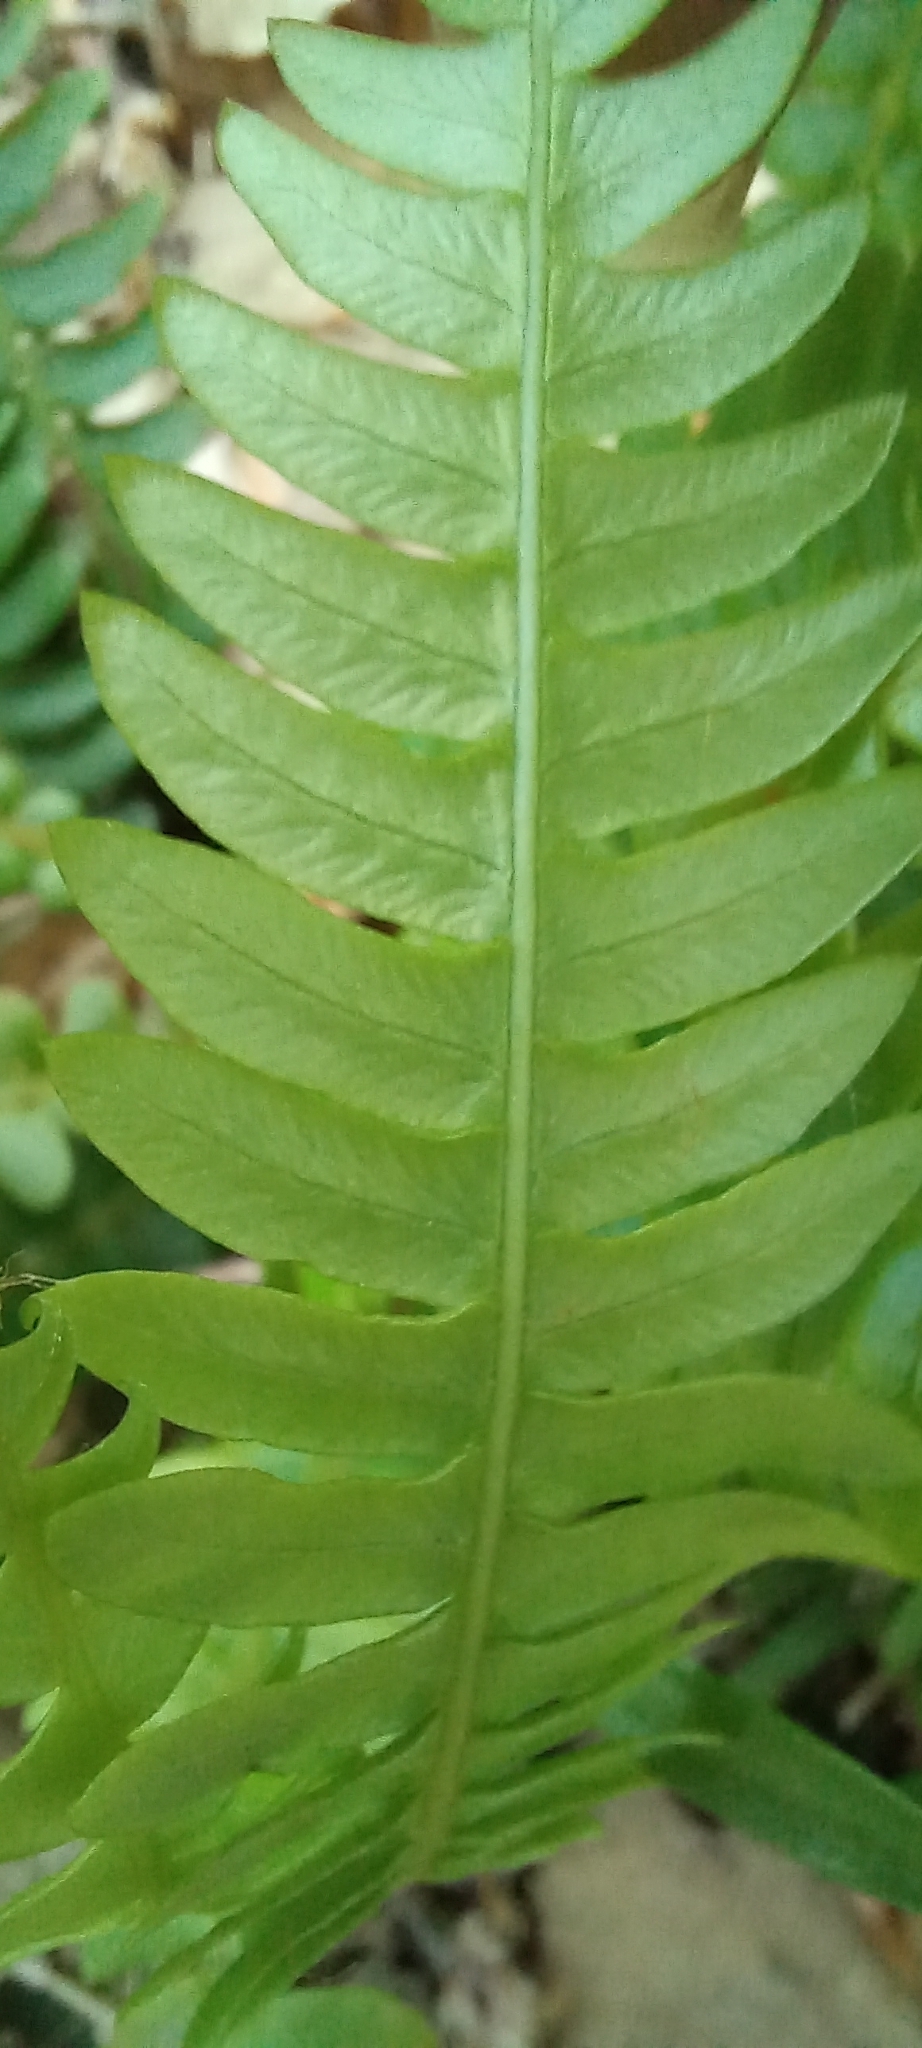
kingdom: Plantae
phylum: Tracheophyta
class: Polypodiopsida
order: Polypodiales
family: Blechnaceae
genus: Struthiopteris
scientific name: Struthiopteris spicant
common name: Deer fern
